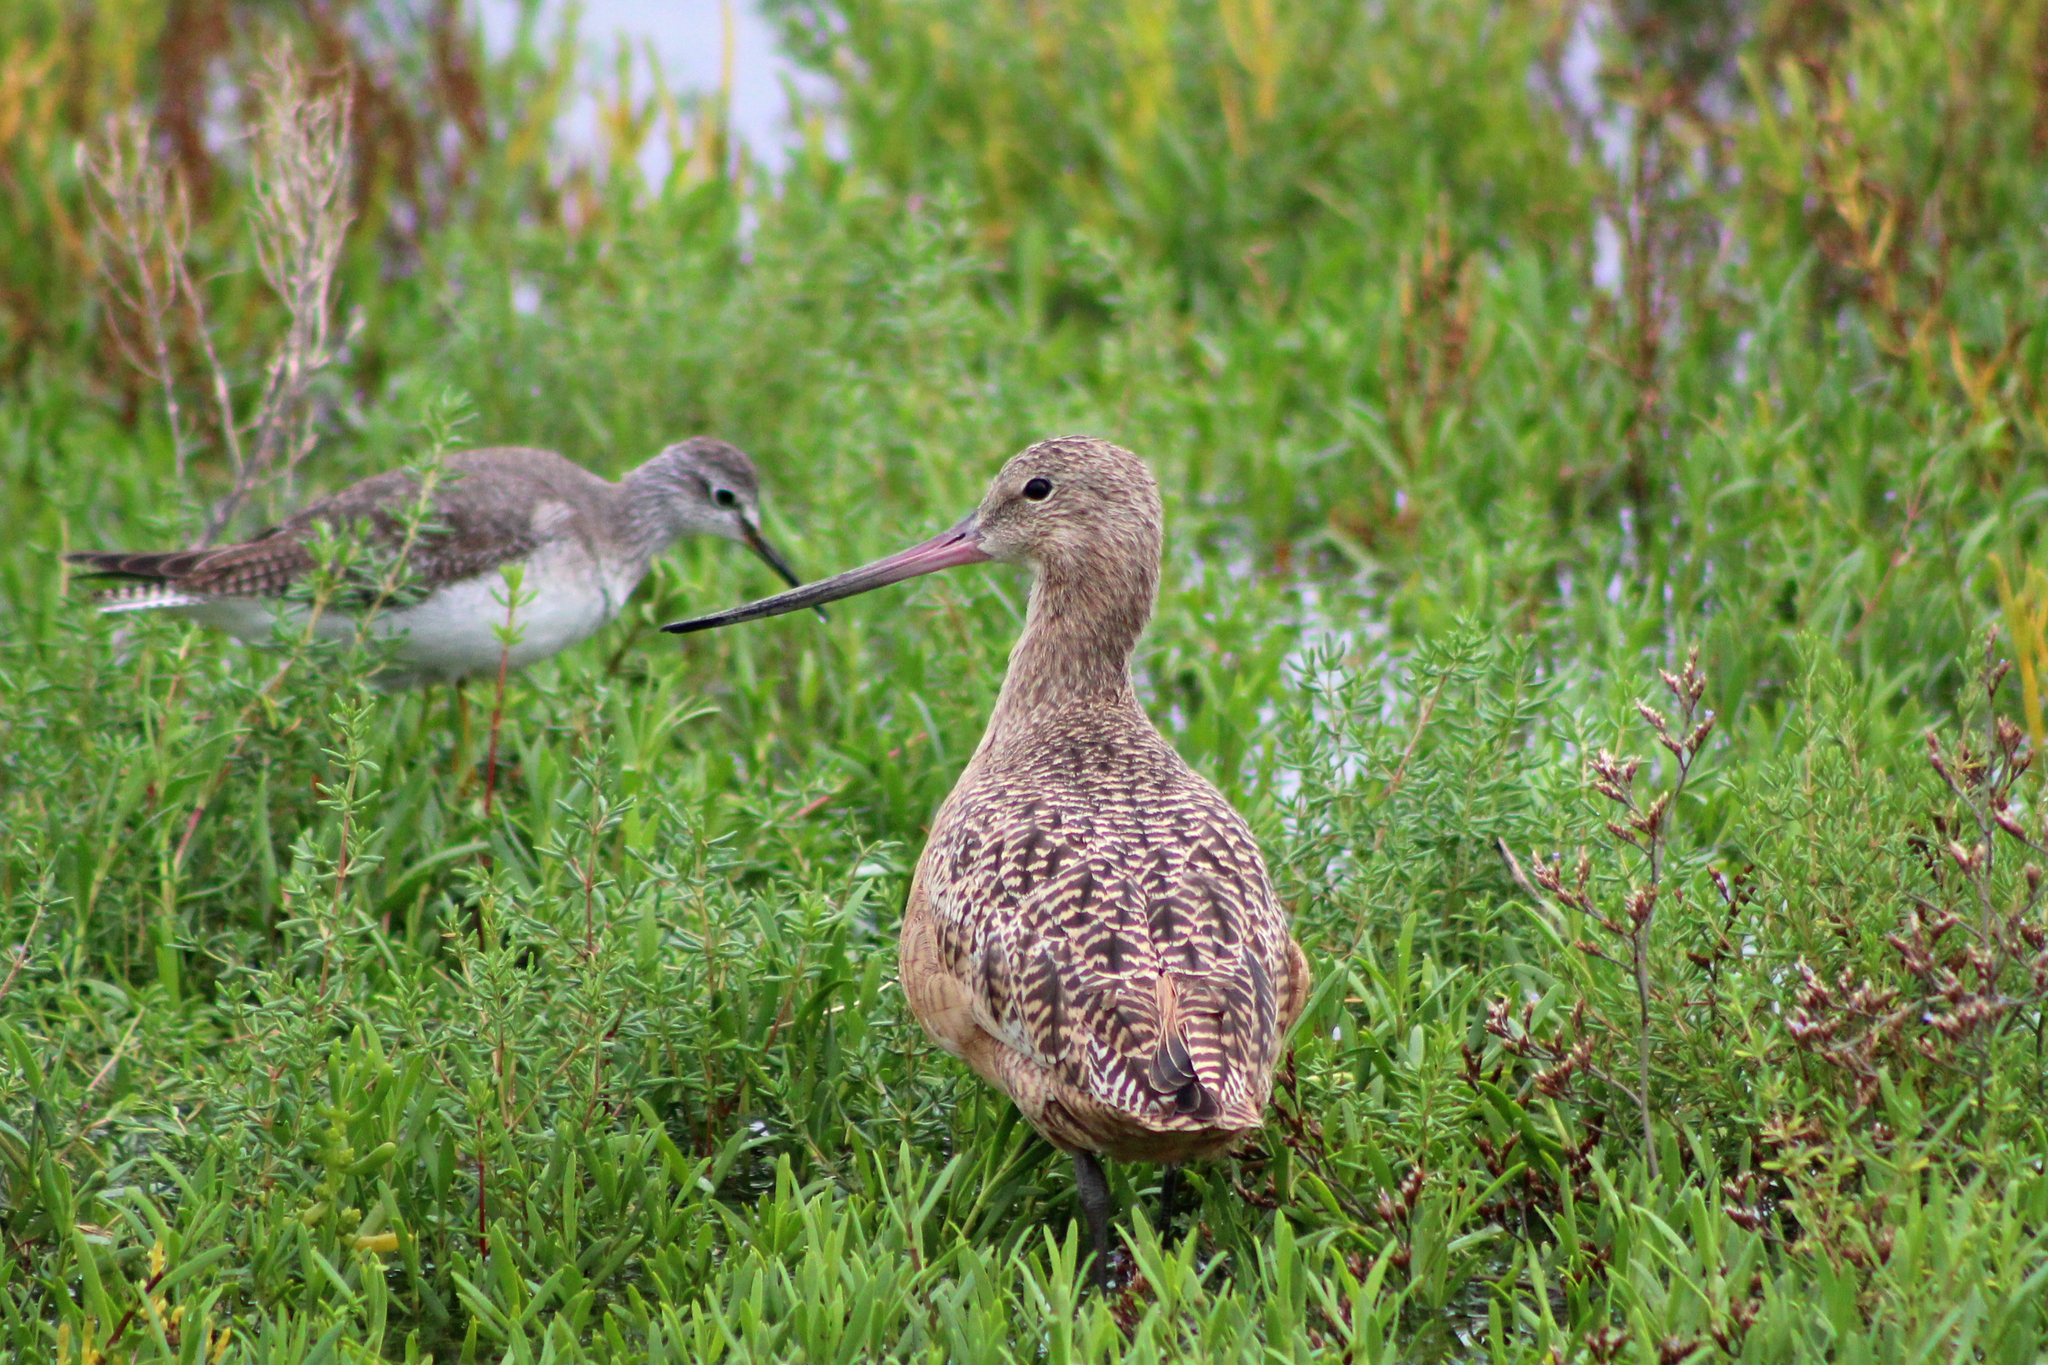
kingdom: Animalia
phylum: Chordata
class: Aves
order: Charadriiformes
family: Scolopacidae
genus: Limosa
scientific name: Limosa fedoa
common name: Marbled godwit
